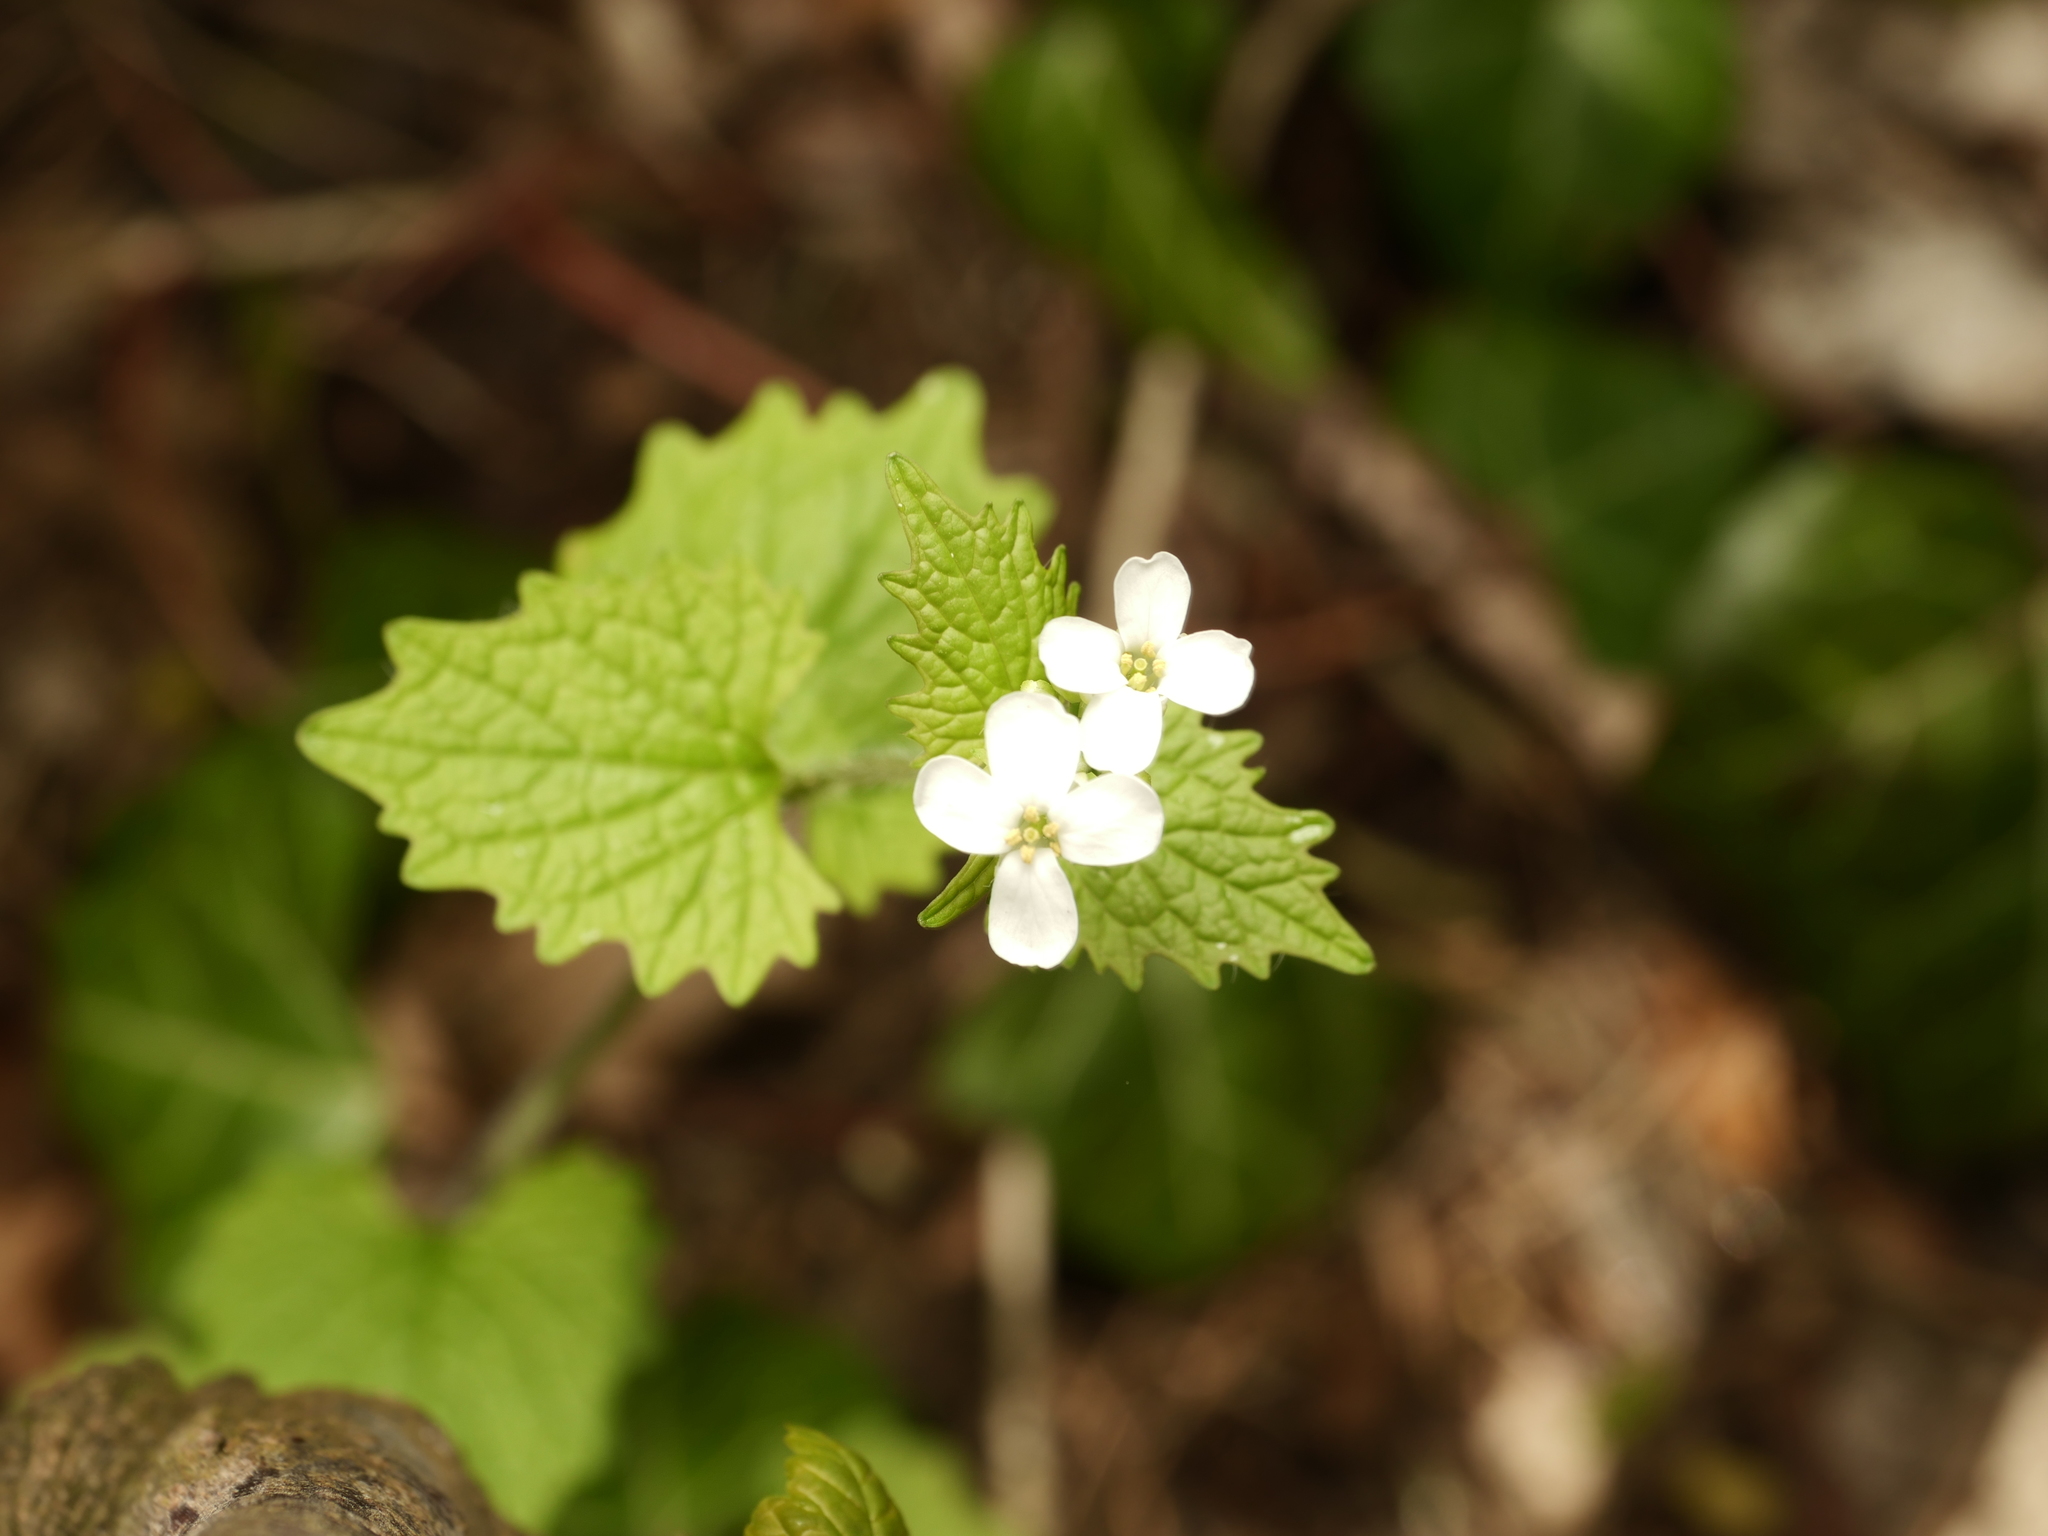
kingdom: Plantae
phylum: Tracheophyta
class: Magnoliopsida
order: Brassicales
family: Brassicaceae
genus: Alliaria
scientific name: Alliaria petiolata
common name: Garlic mustard
